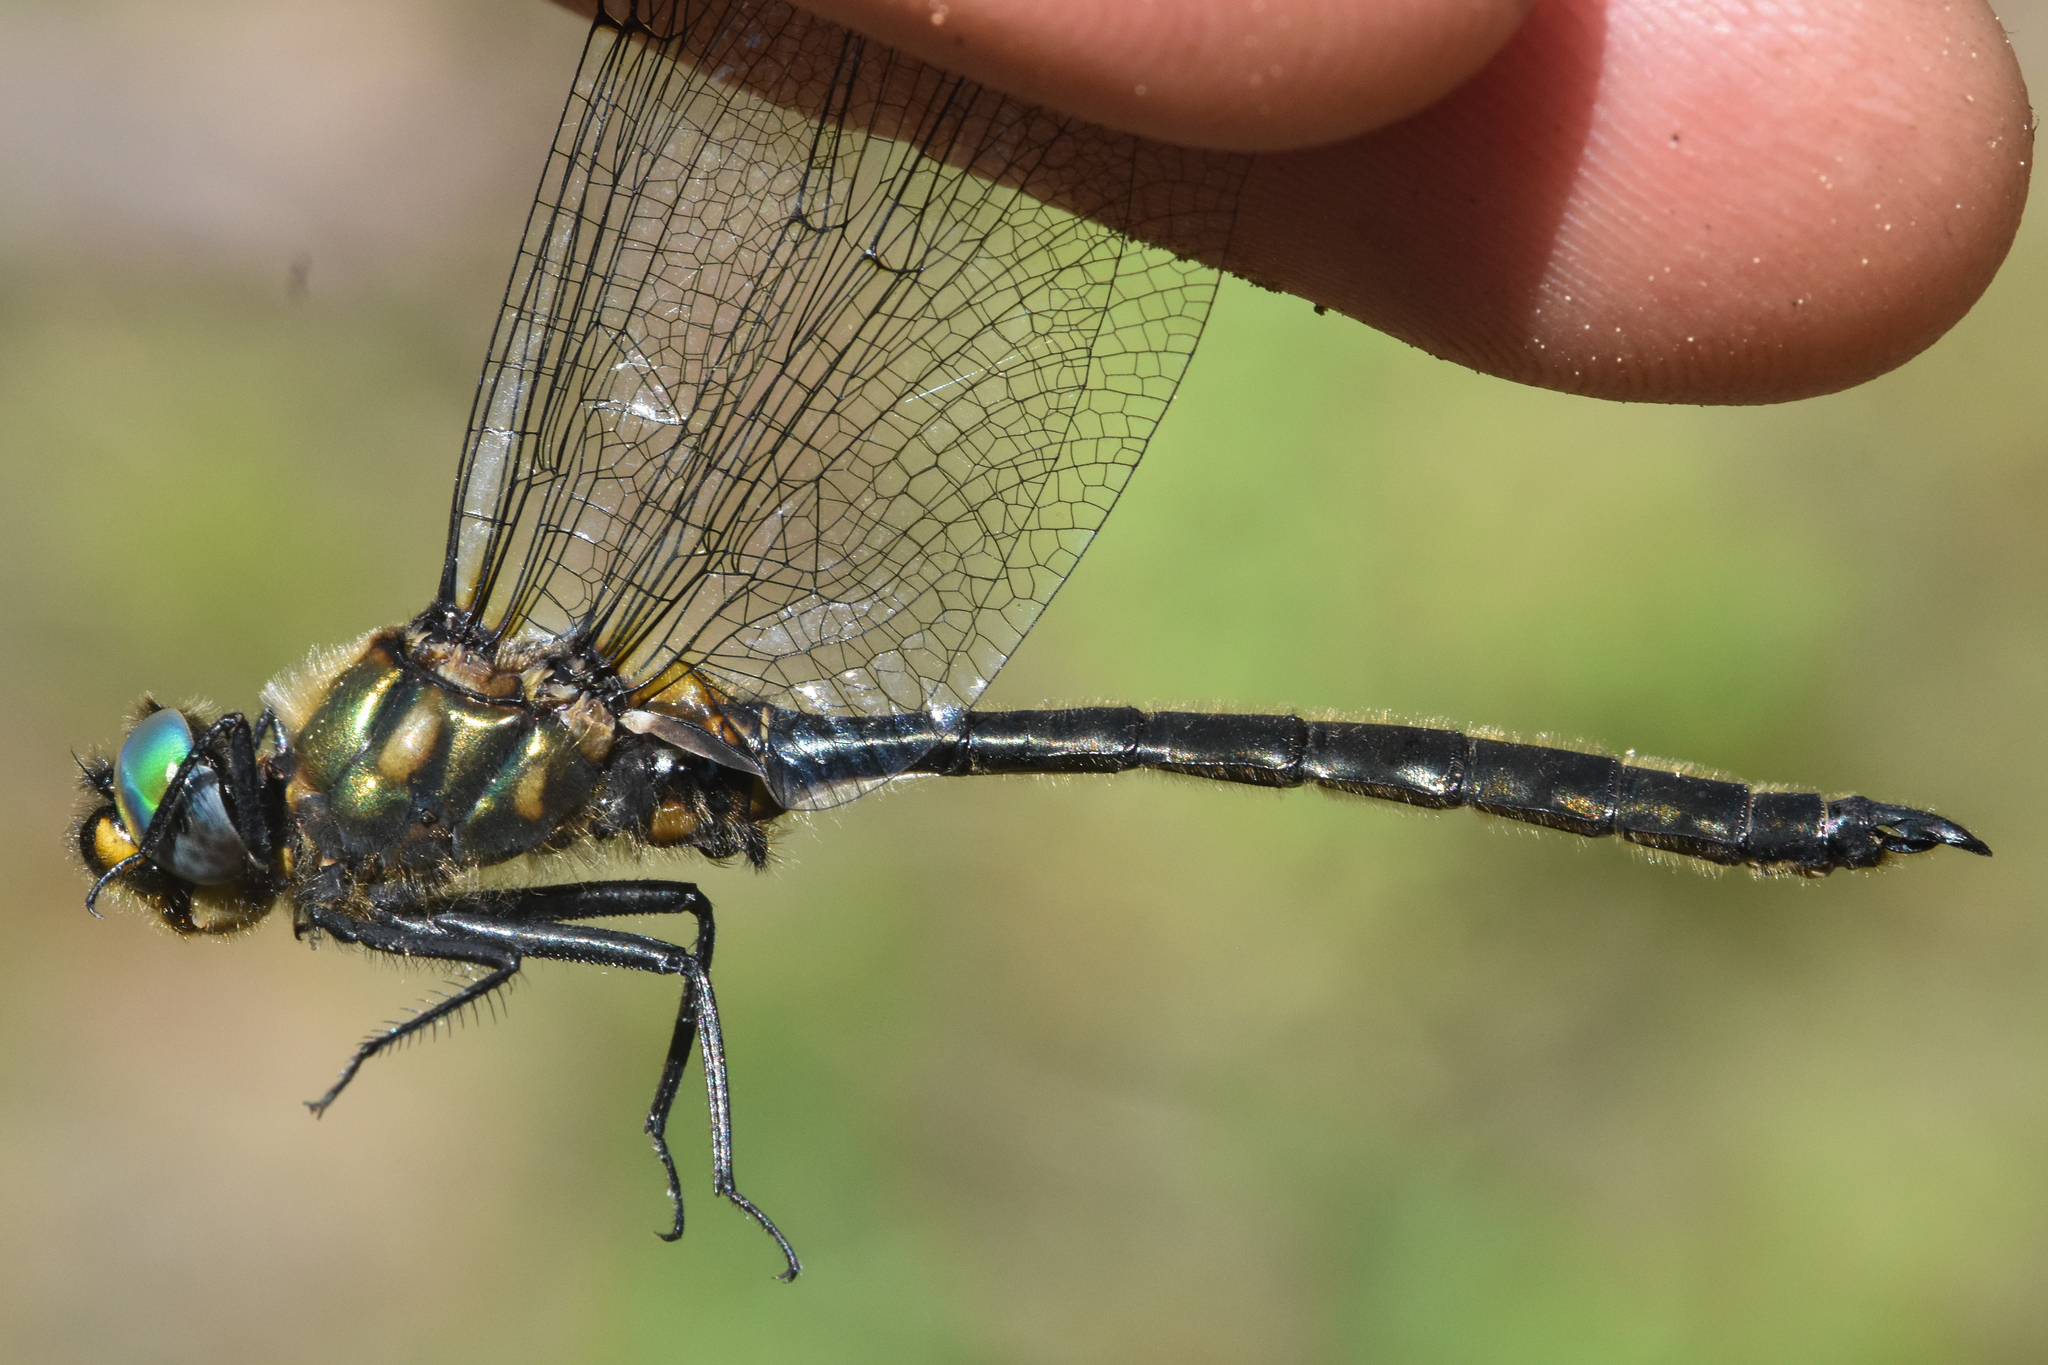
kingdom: Animalia
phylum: Arthropoda
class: Insecta
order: Odonata
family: Corduliidae
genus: Somatochlora
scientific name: Somatochlora semicircularis
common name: Mountain emerald
